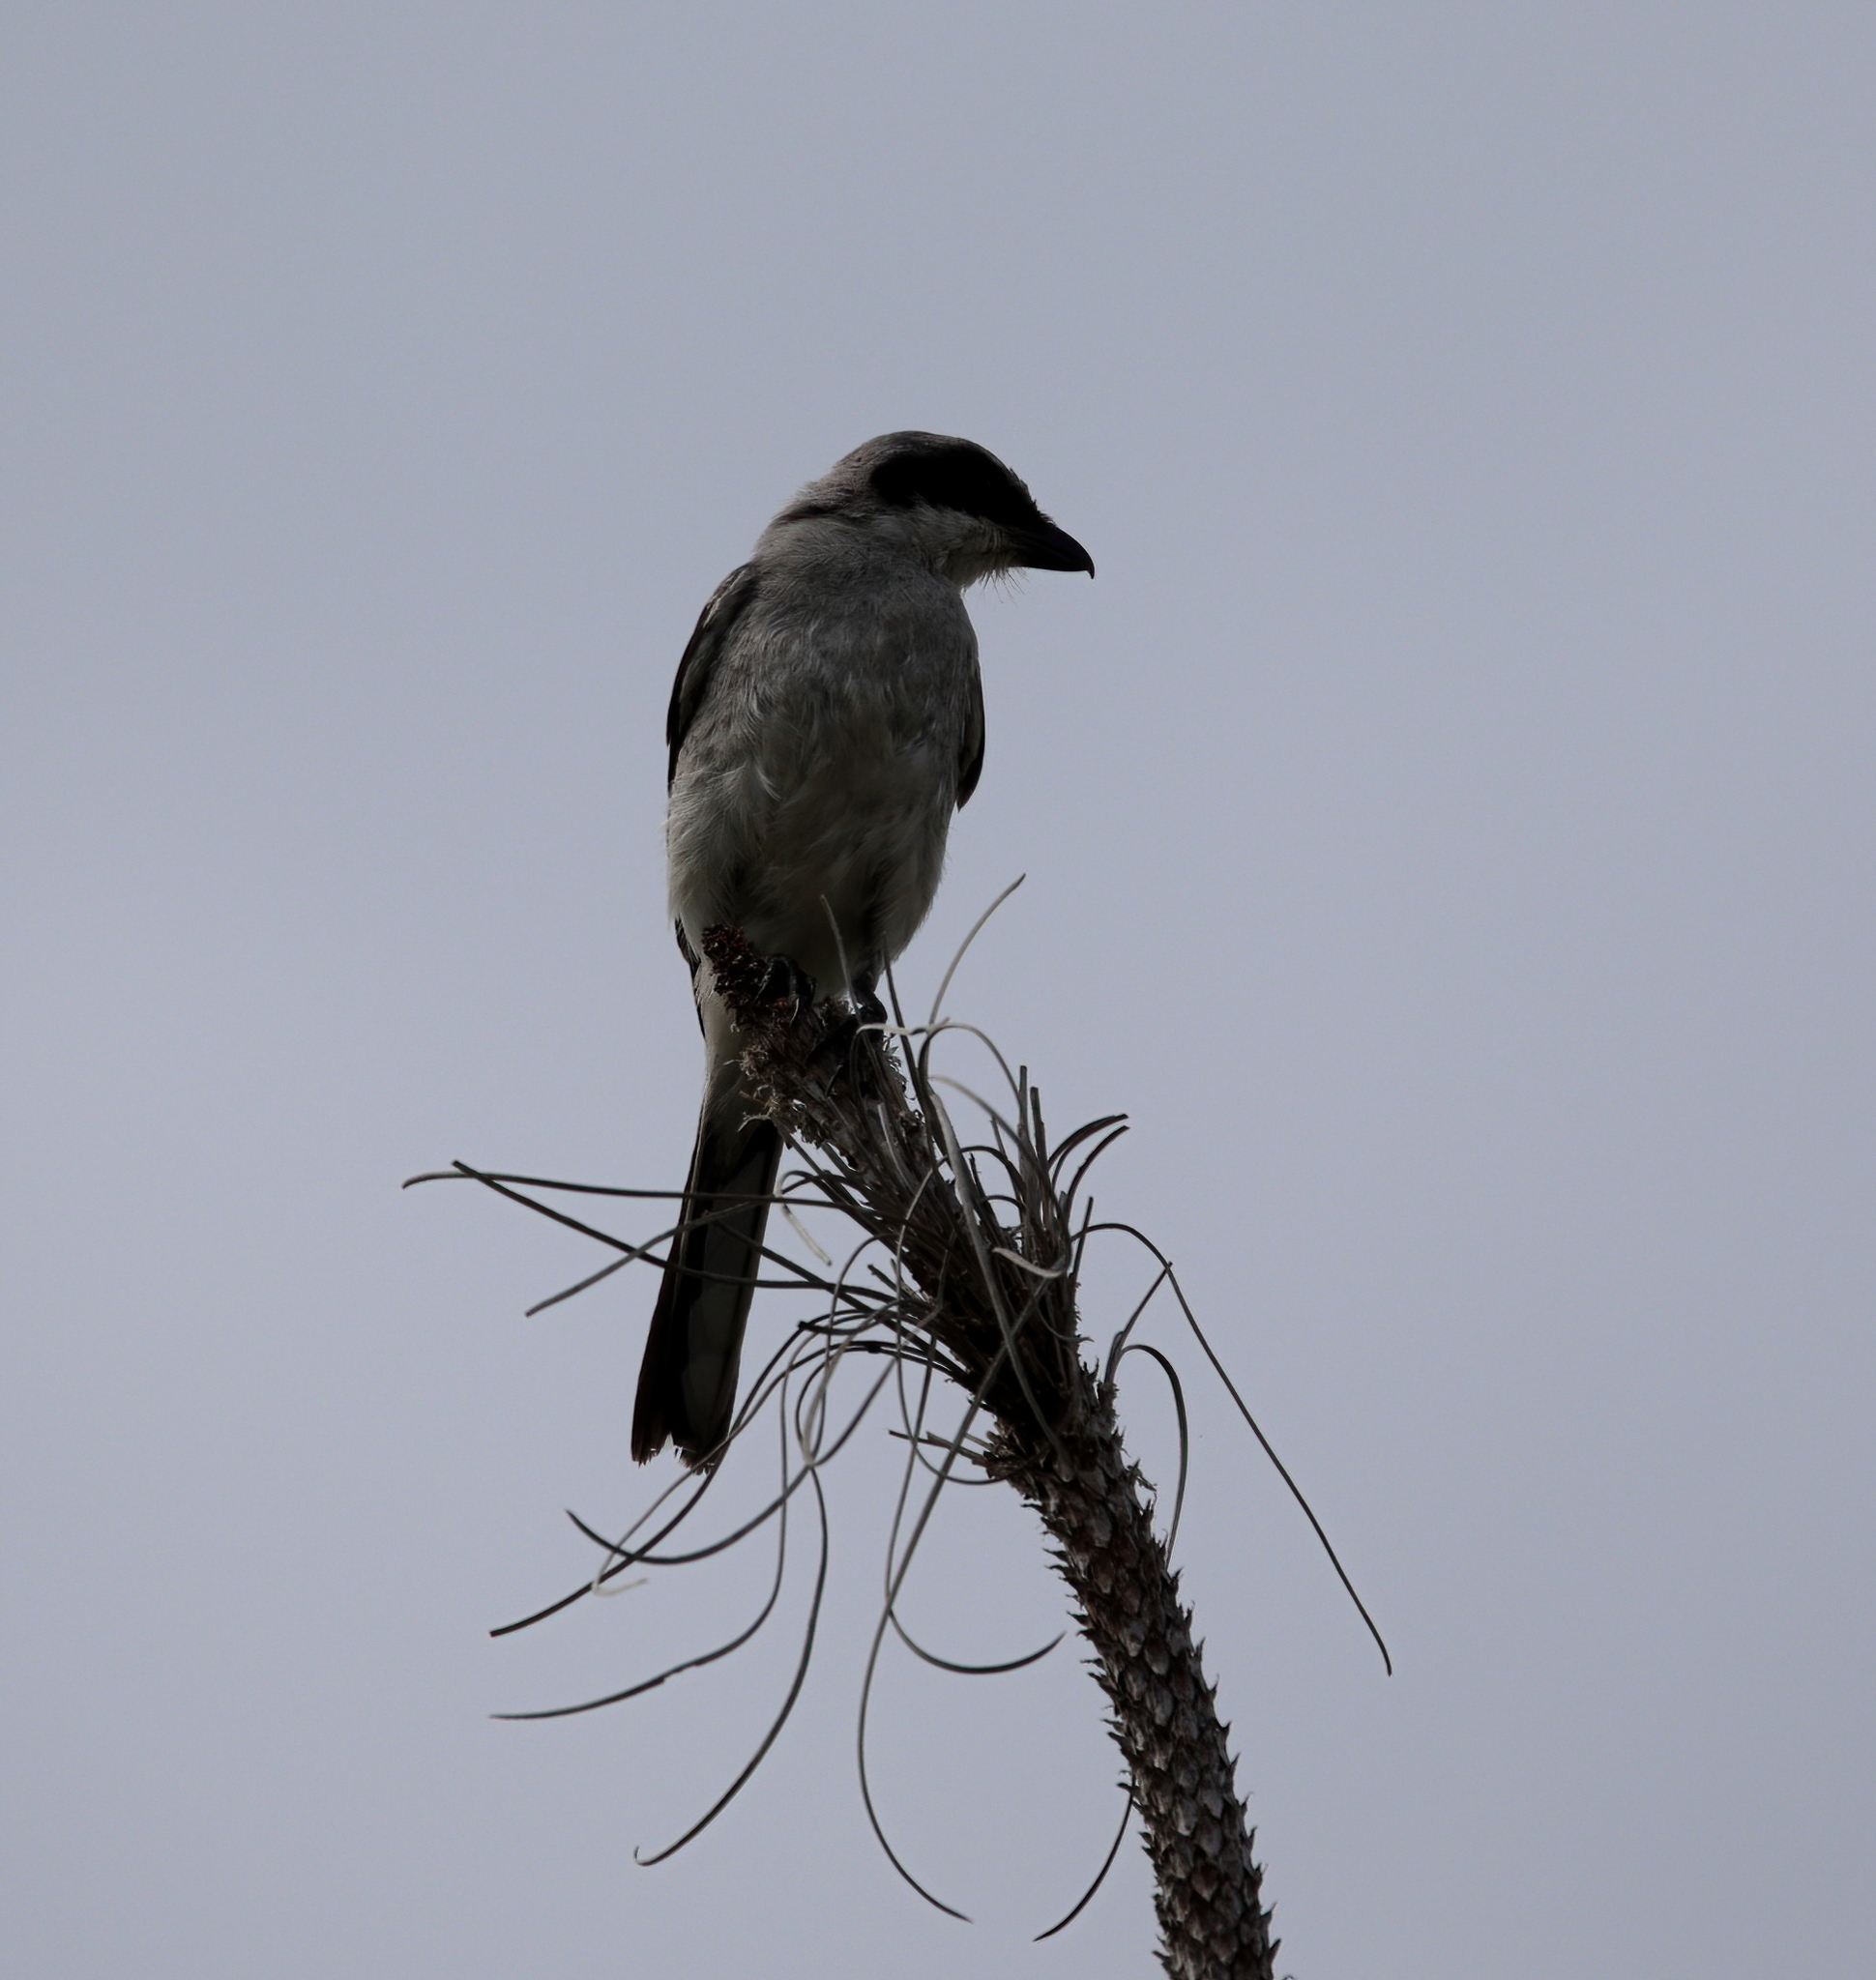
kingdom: Animalia
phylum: Chordata
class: Aves
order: Passeriformes
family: Laniidae
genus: Lanius
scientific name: Lanius ludovicianus
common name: Loggerhead shrike
